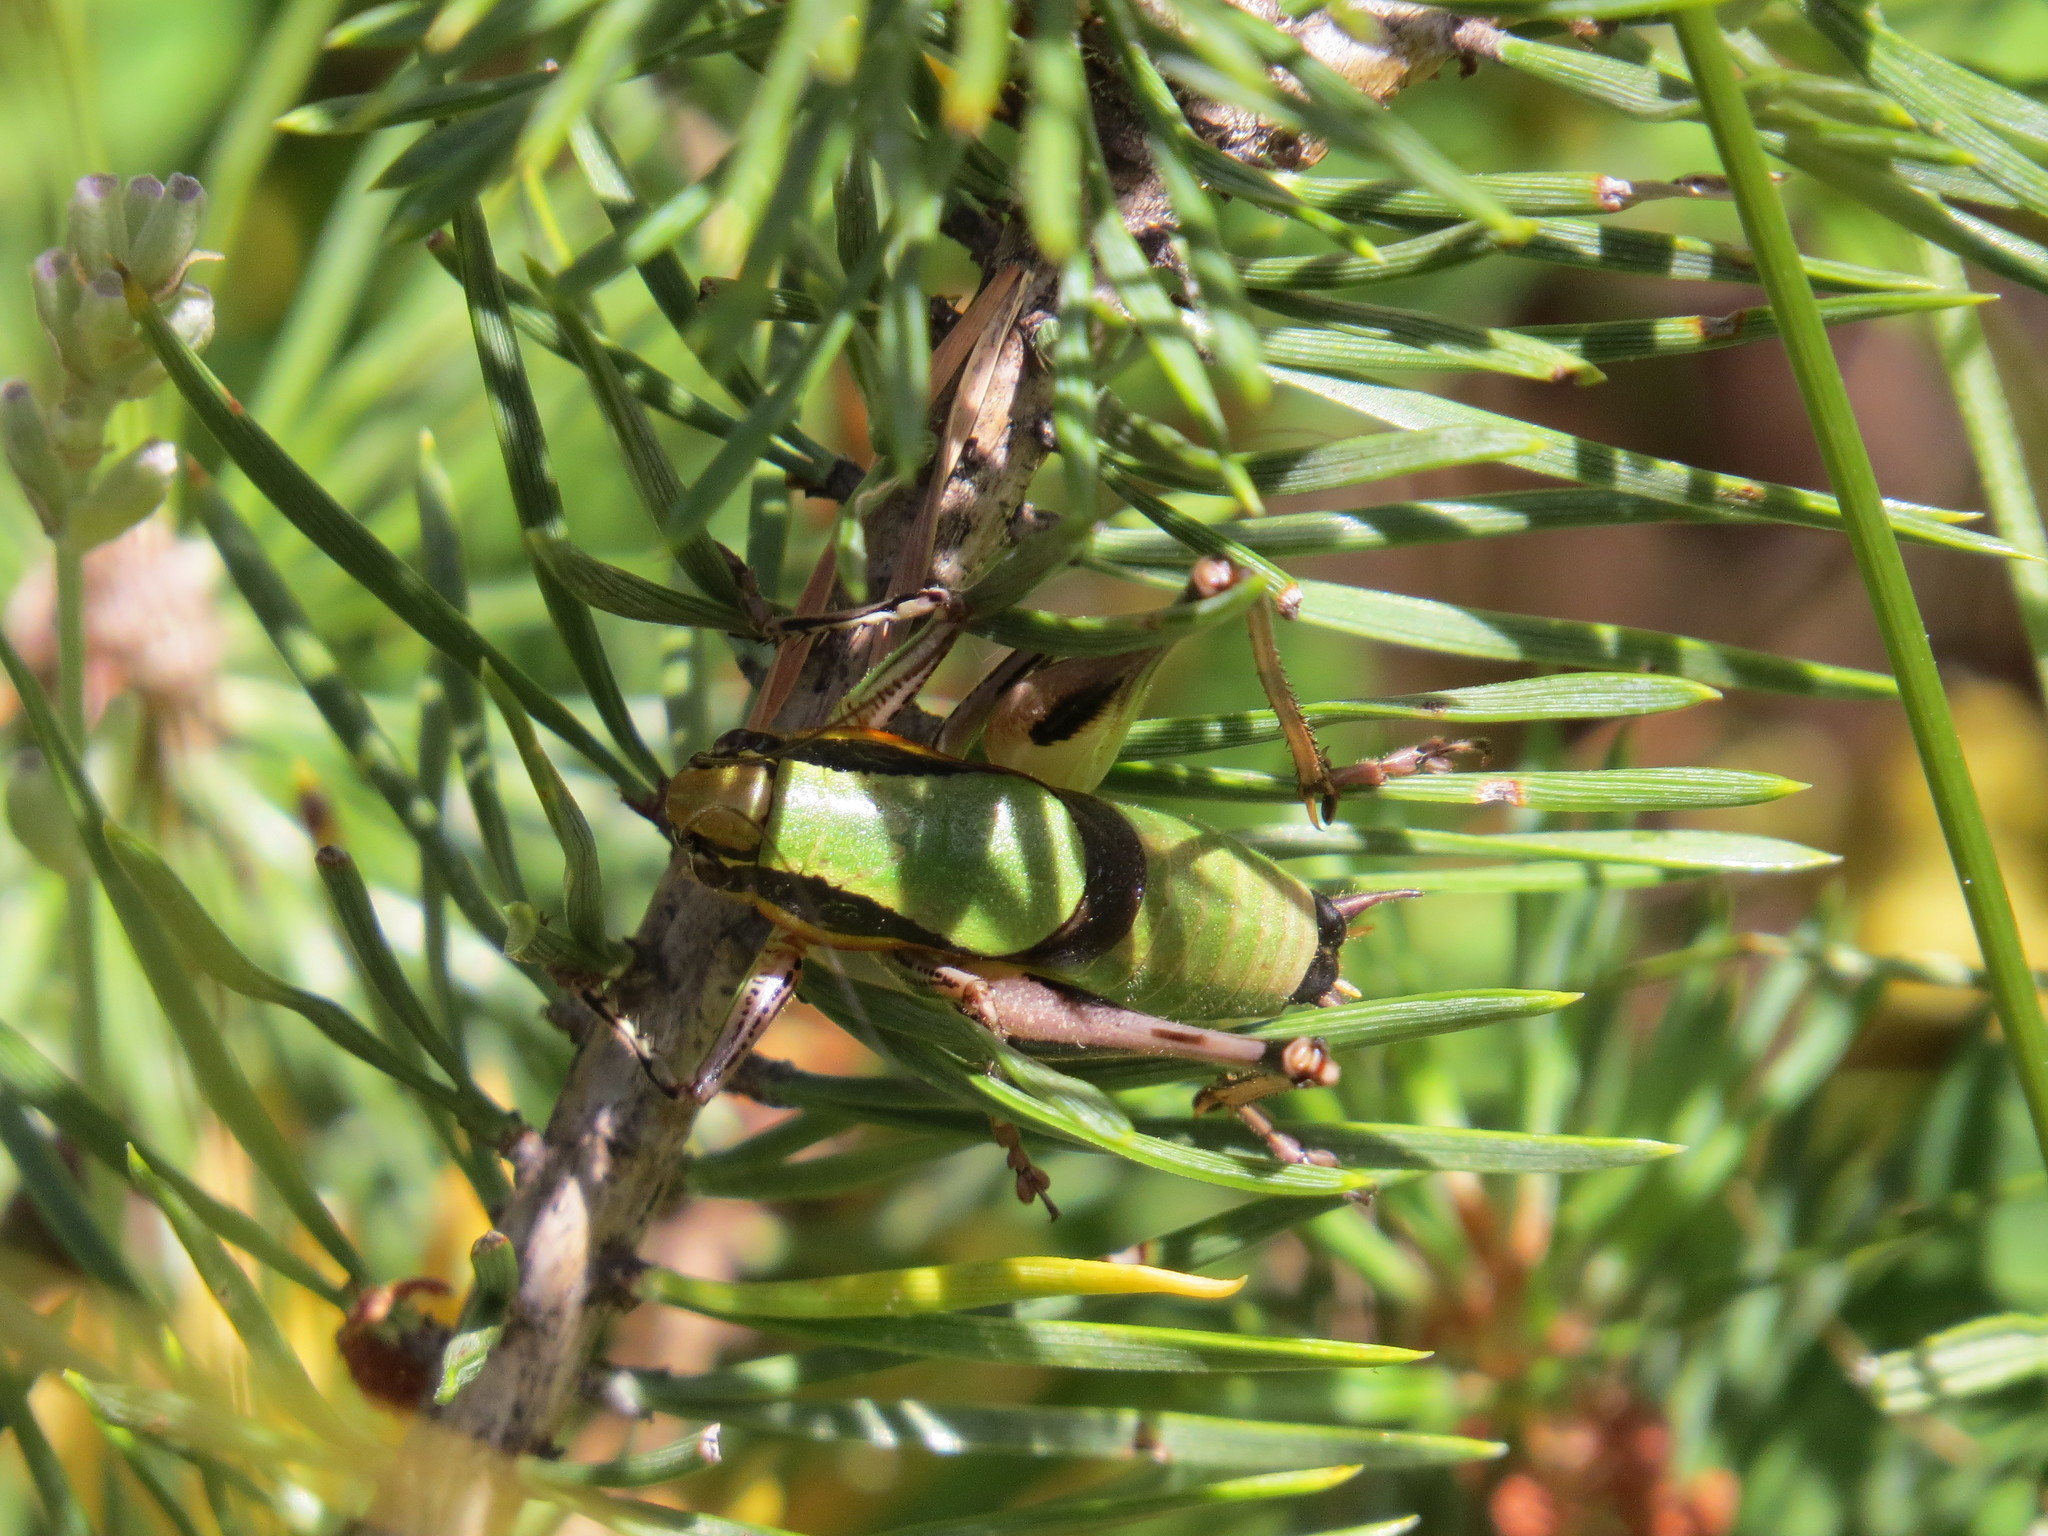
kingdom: Animalia
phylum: Arthropoda
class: Insecta
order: Orthoptera
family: Tettigoniidae
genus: Eupholidoptera
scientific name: Eupholidoptera chabrieri
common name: Chabrier's marbled bush-cricket
